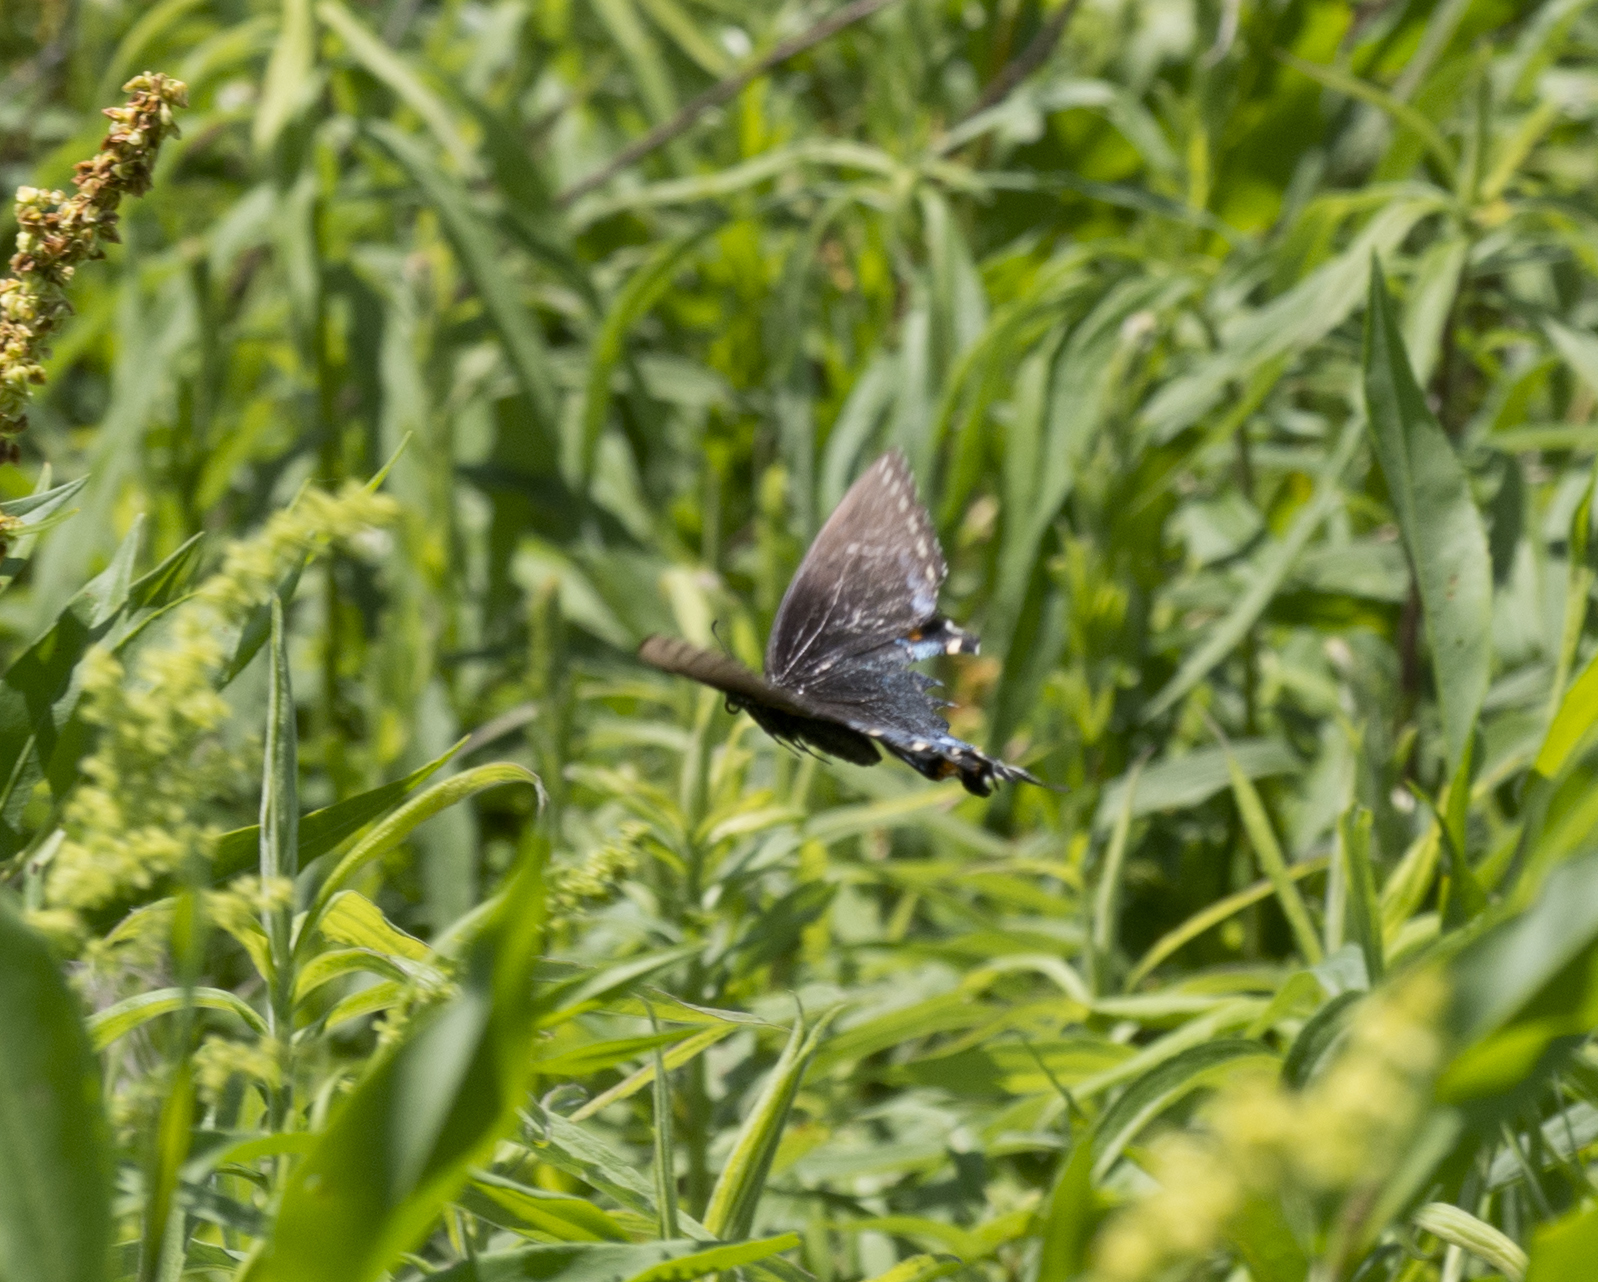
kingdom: Animalia
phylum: Arthropoda
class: Insecta
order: Lepidoptera
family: Papilionidae
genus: Papilio
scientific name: Papilio glaucus
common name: Tiger swallowtail
